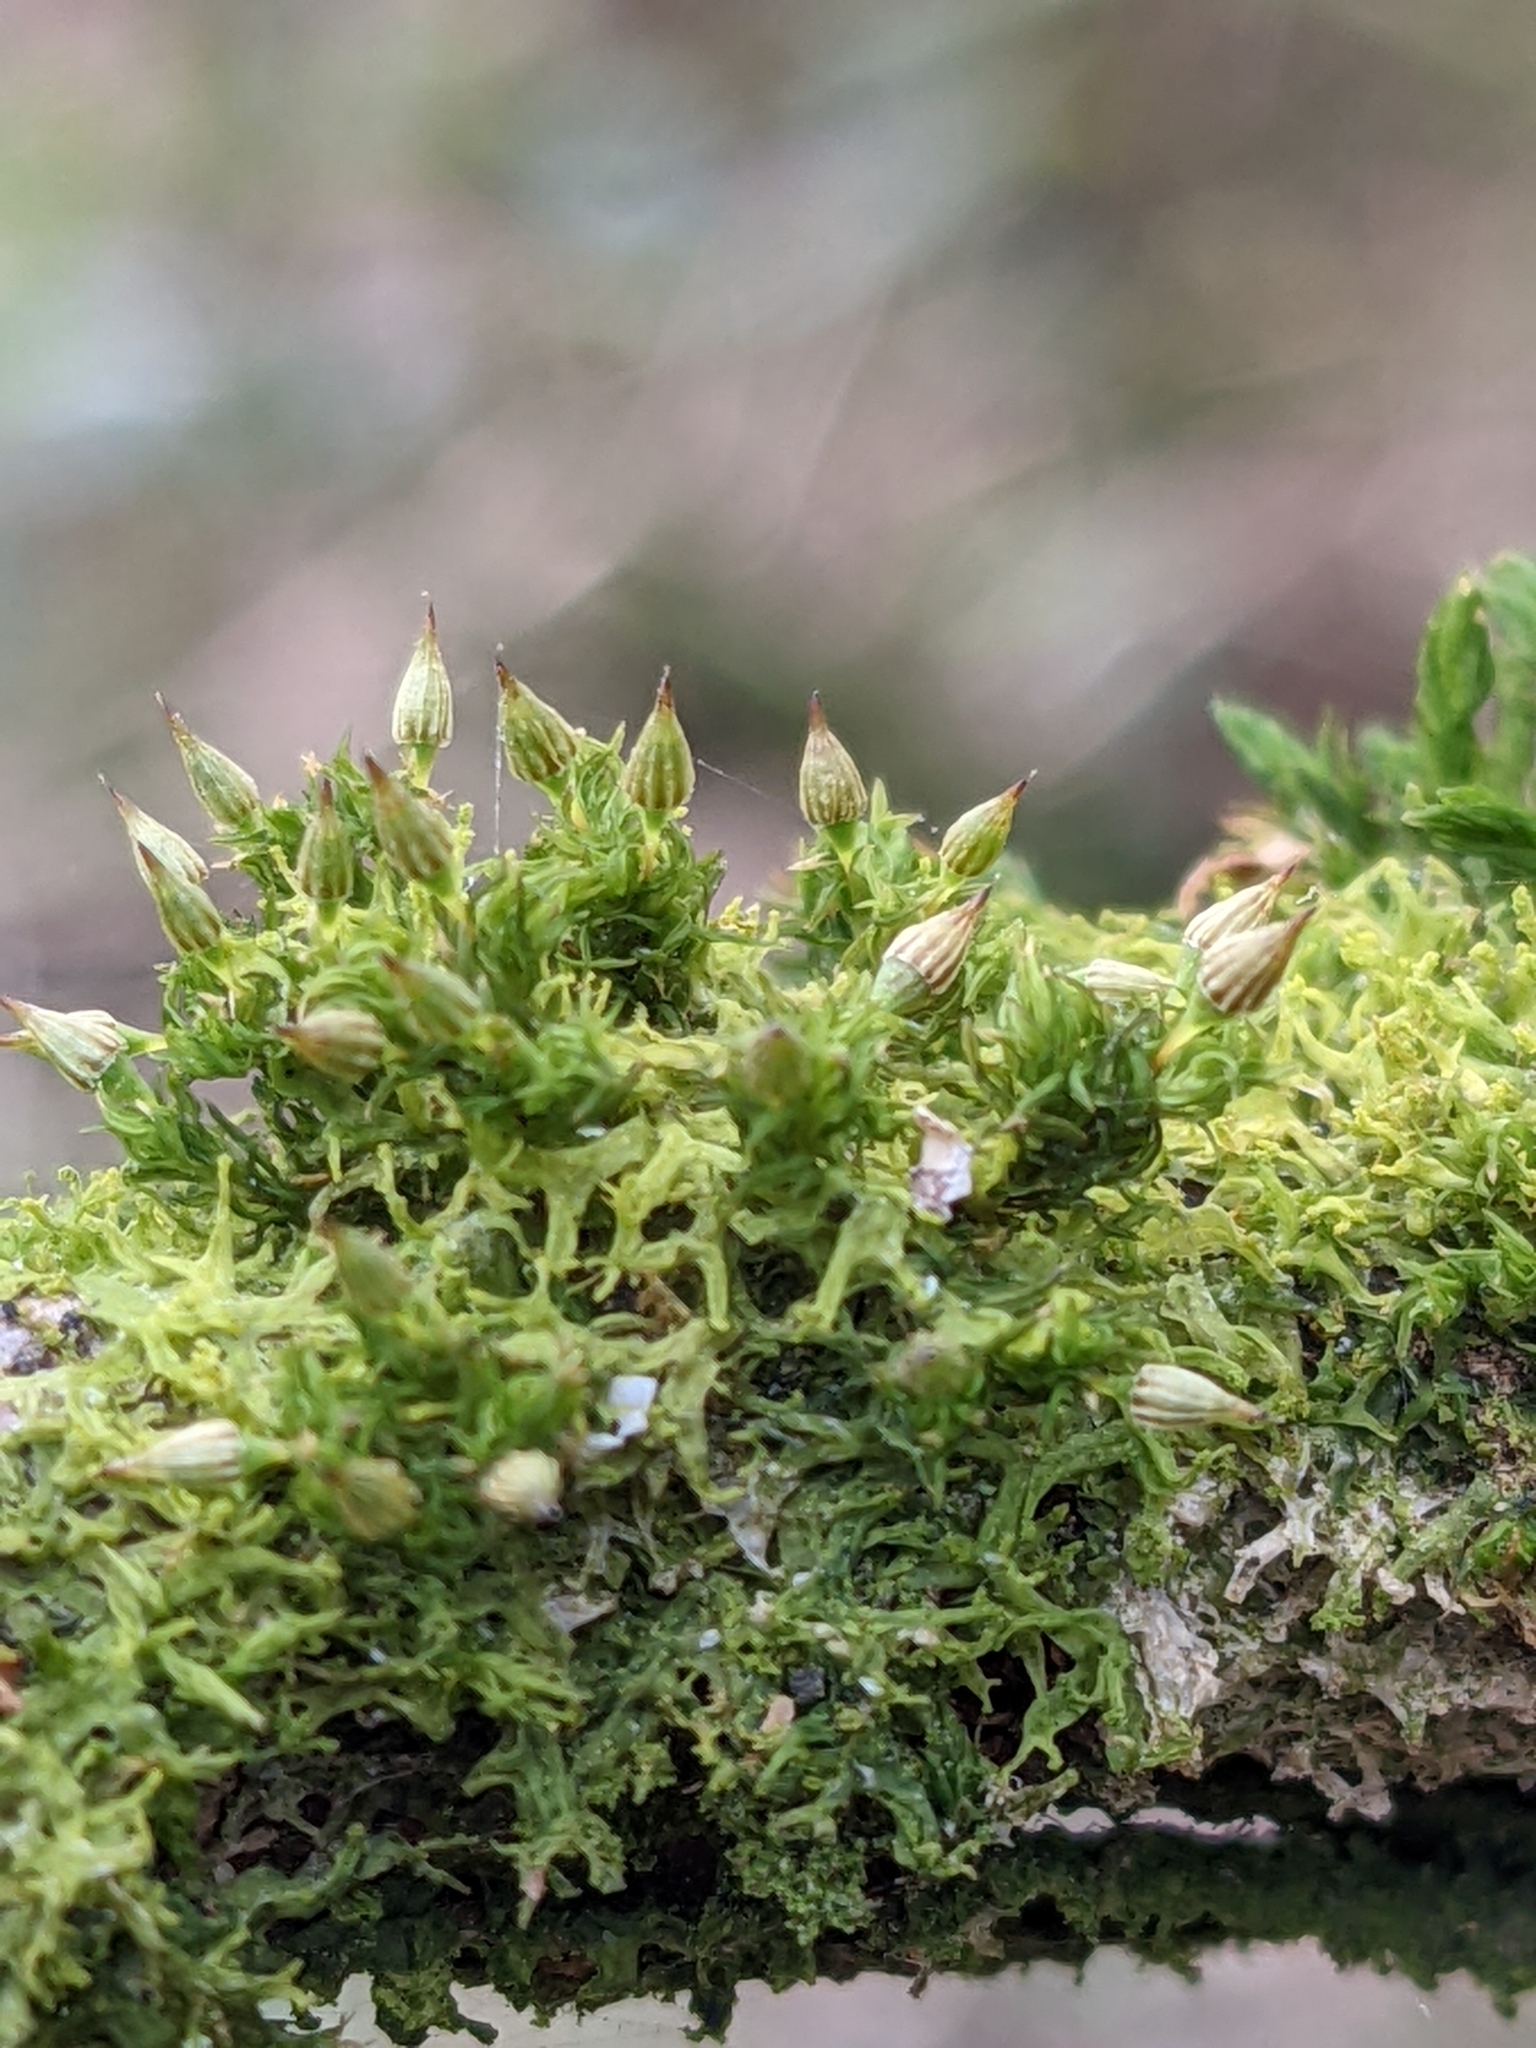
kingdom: Plantae
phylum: Bryophyta
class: Bryopsida
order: Orthotrichales
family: Orthotrichaceae
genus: Orthotrichum
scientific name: Orthotrichum pulchellum
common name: Elegant bristle-moss
